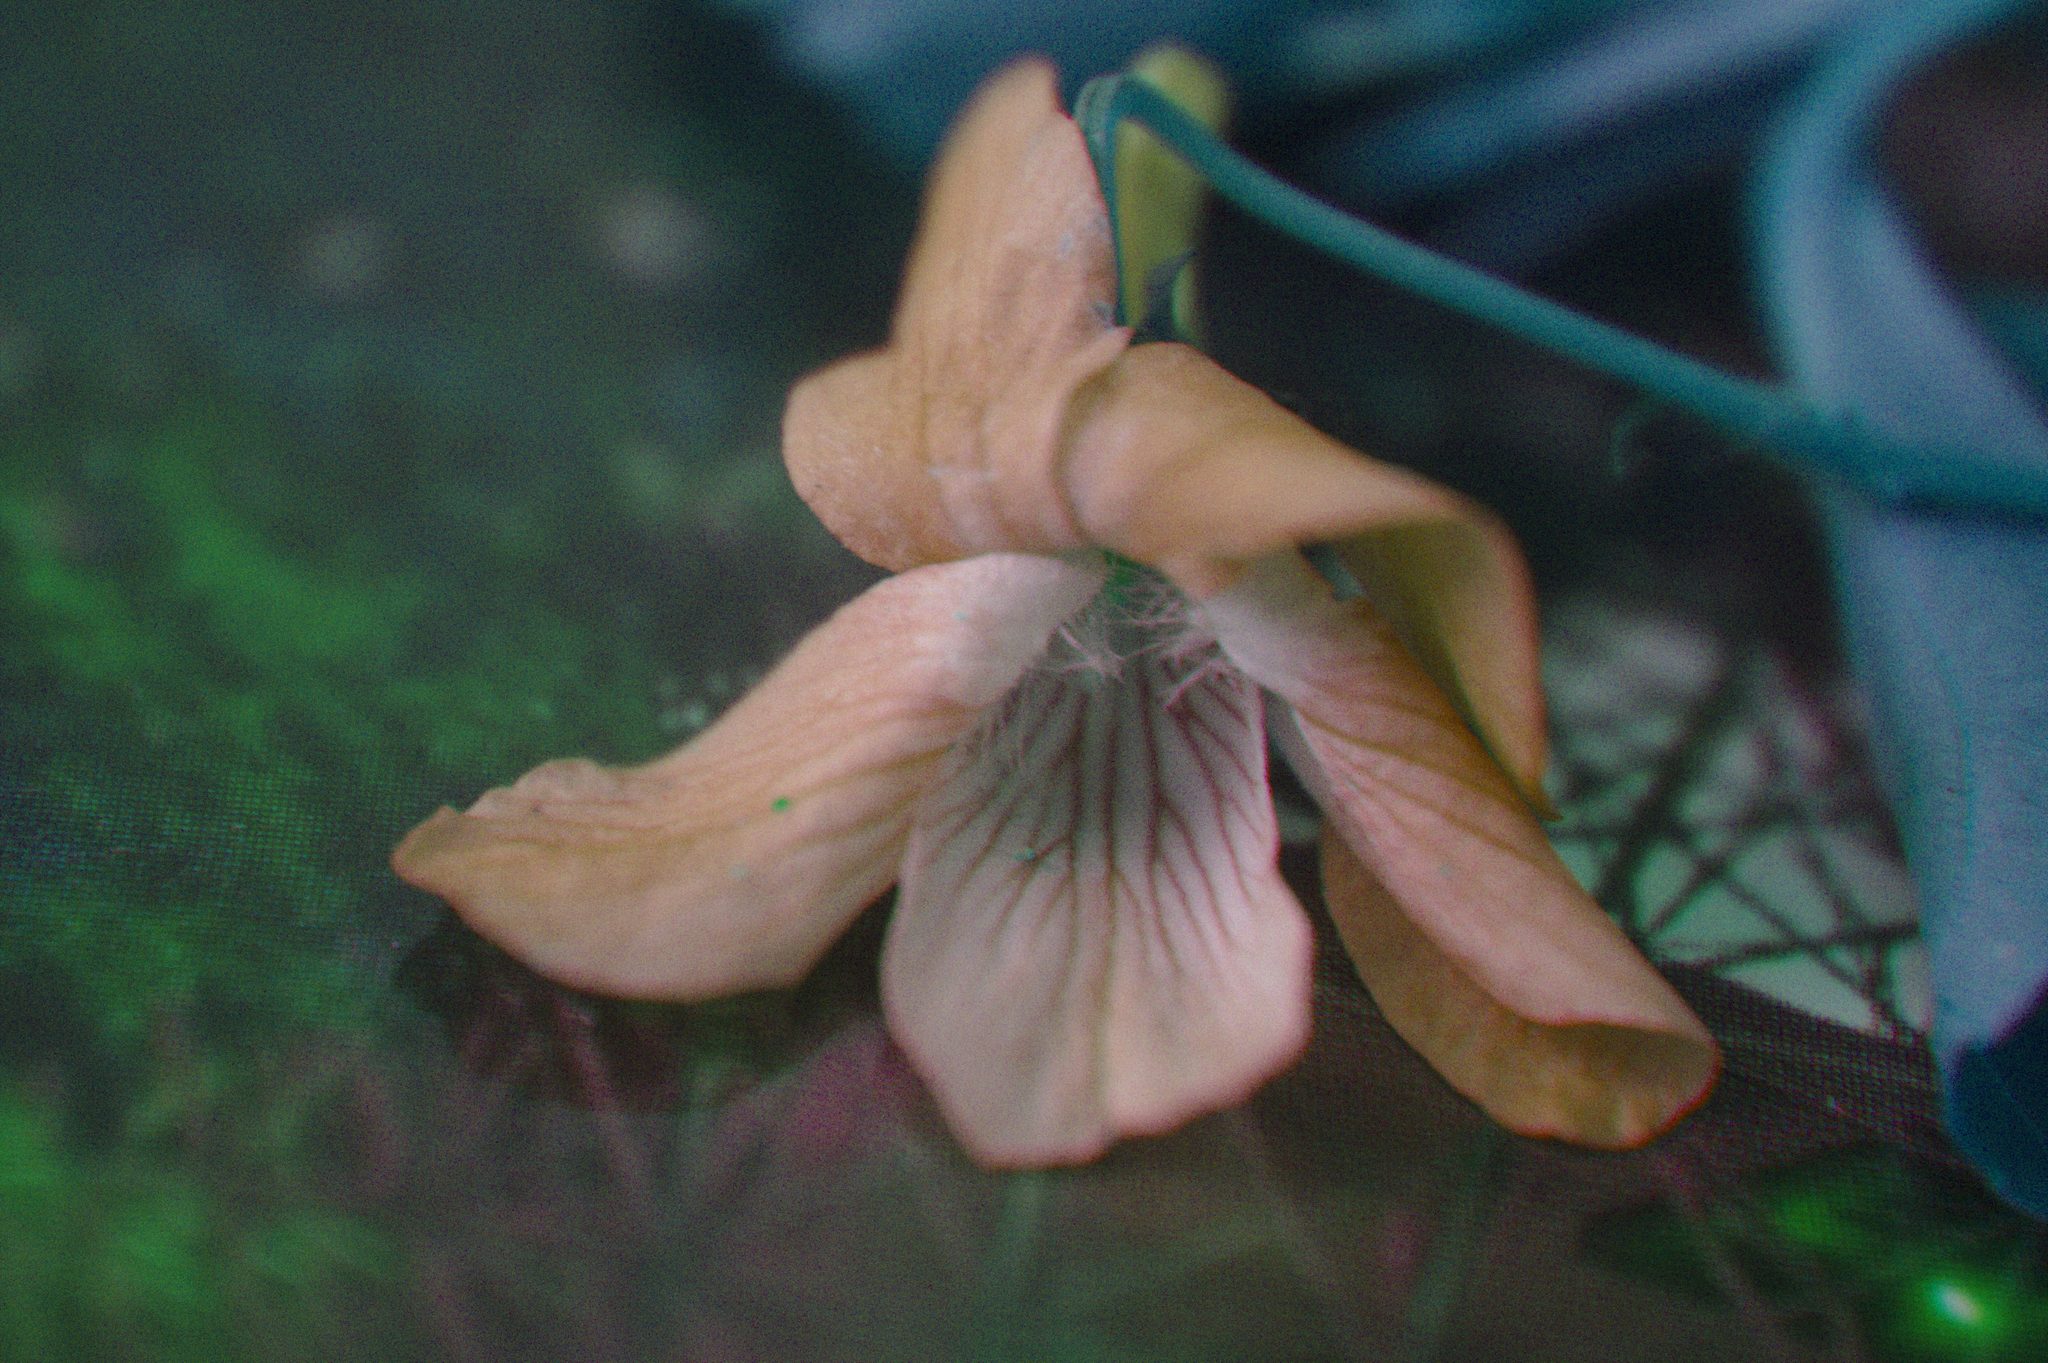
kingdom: Plantae
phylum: Tracheophyta
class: Magnoliopsida
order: Malpighiales
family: Violaceae
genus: Viola
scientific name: Viola labradorica
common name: Labrador violet
